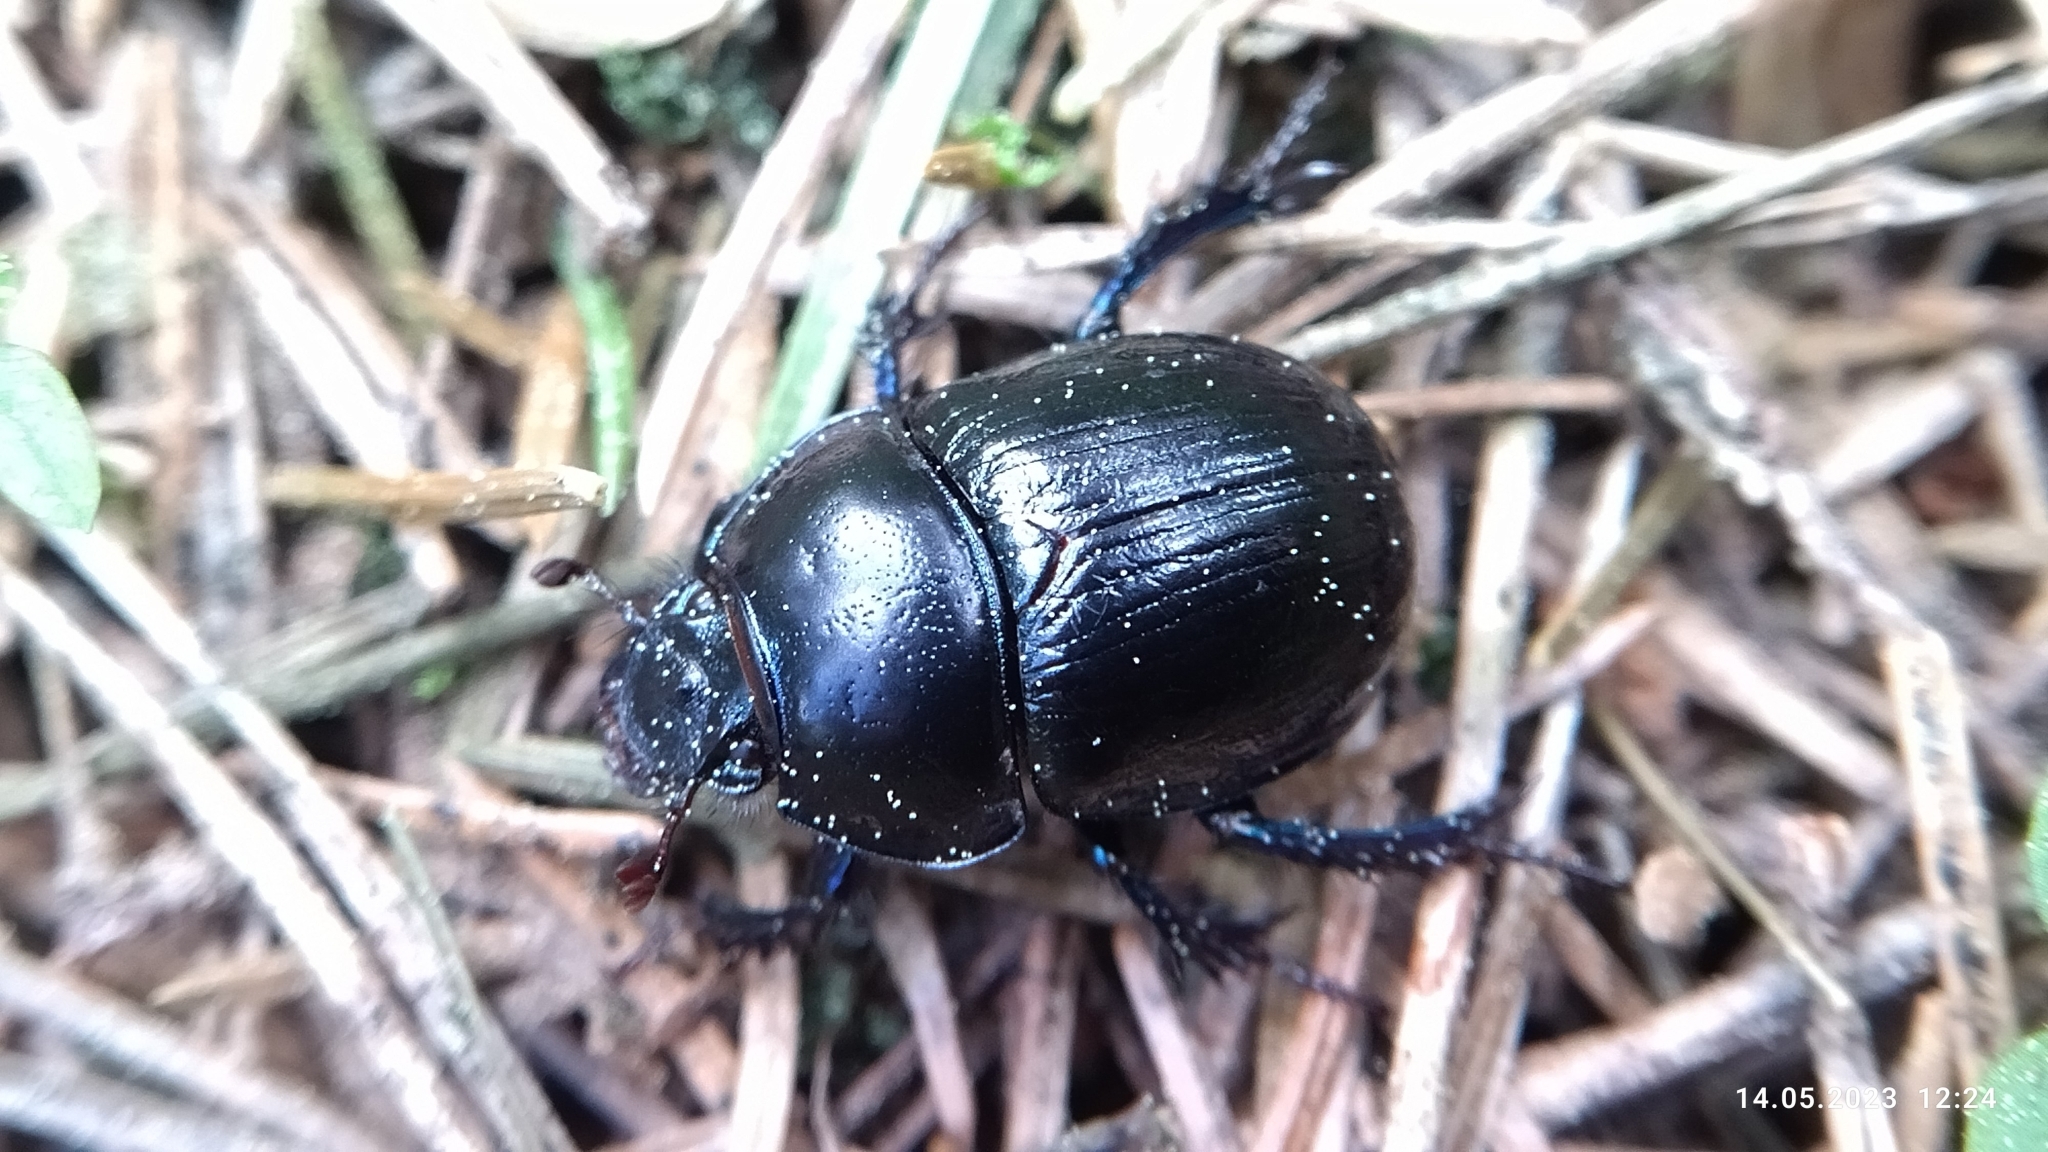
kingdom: Animalia
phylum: Arthropoda
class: Insecta
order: Coleoptera
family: Geotrupidae
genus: Anoplotrupes
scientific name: Anoplotrupes stercorosus
